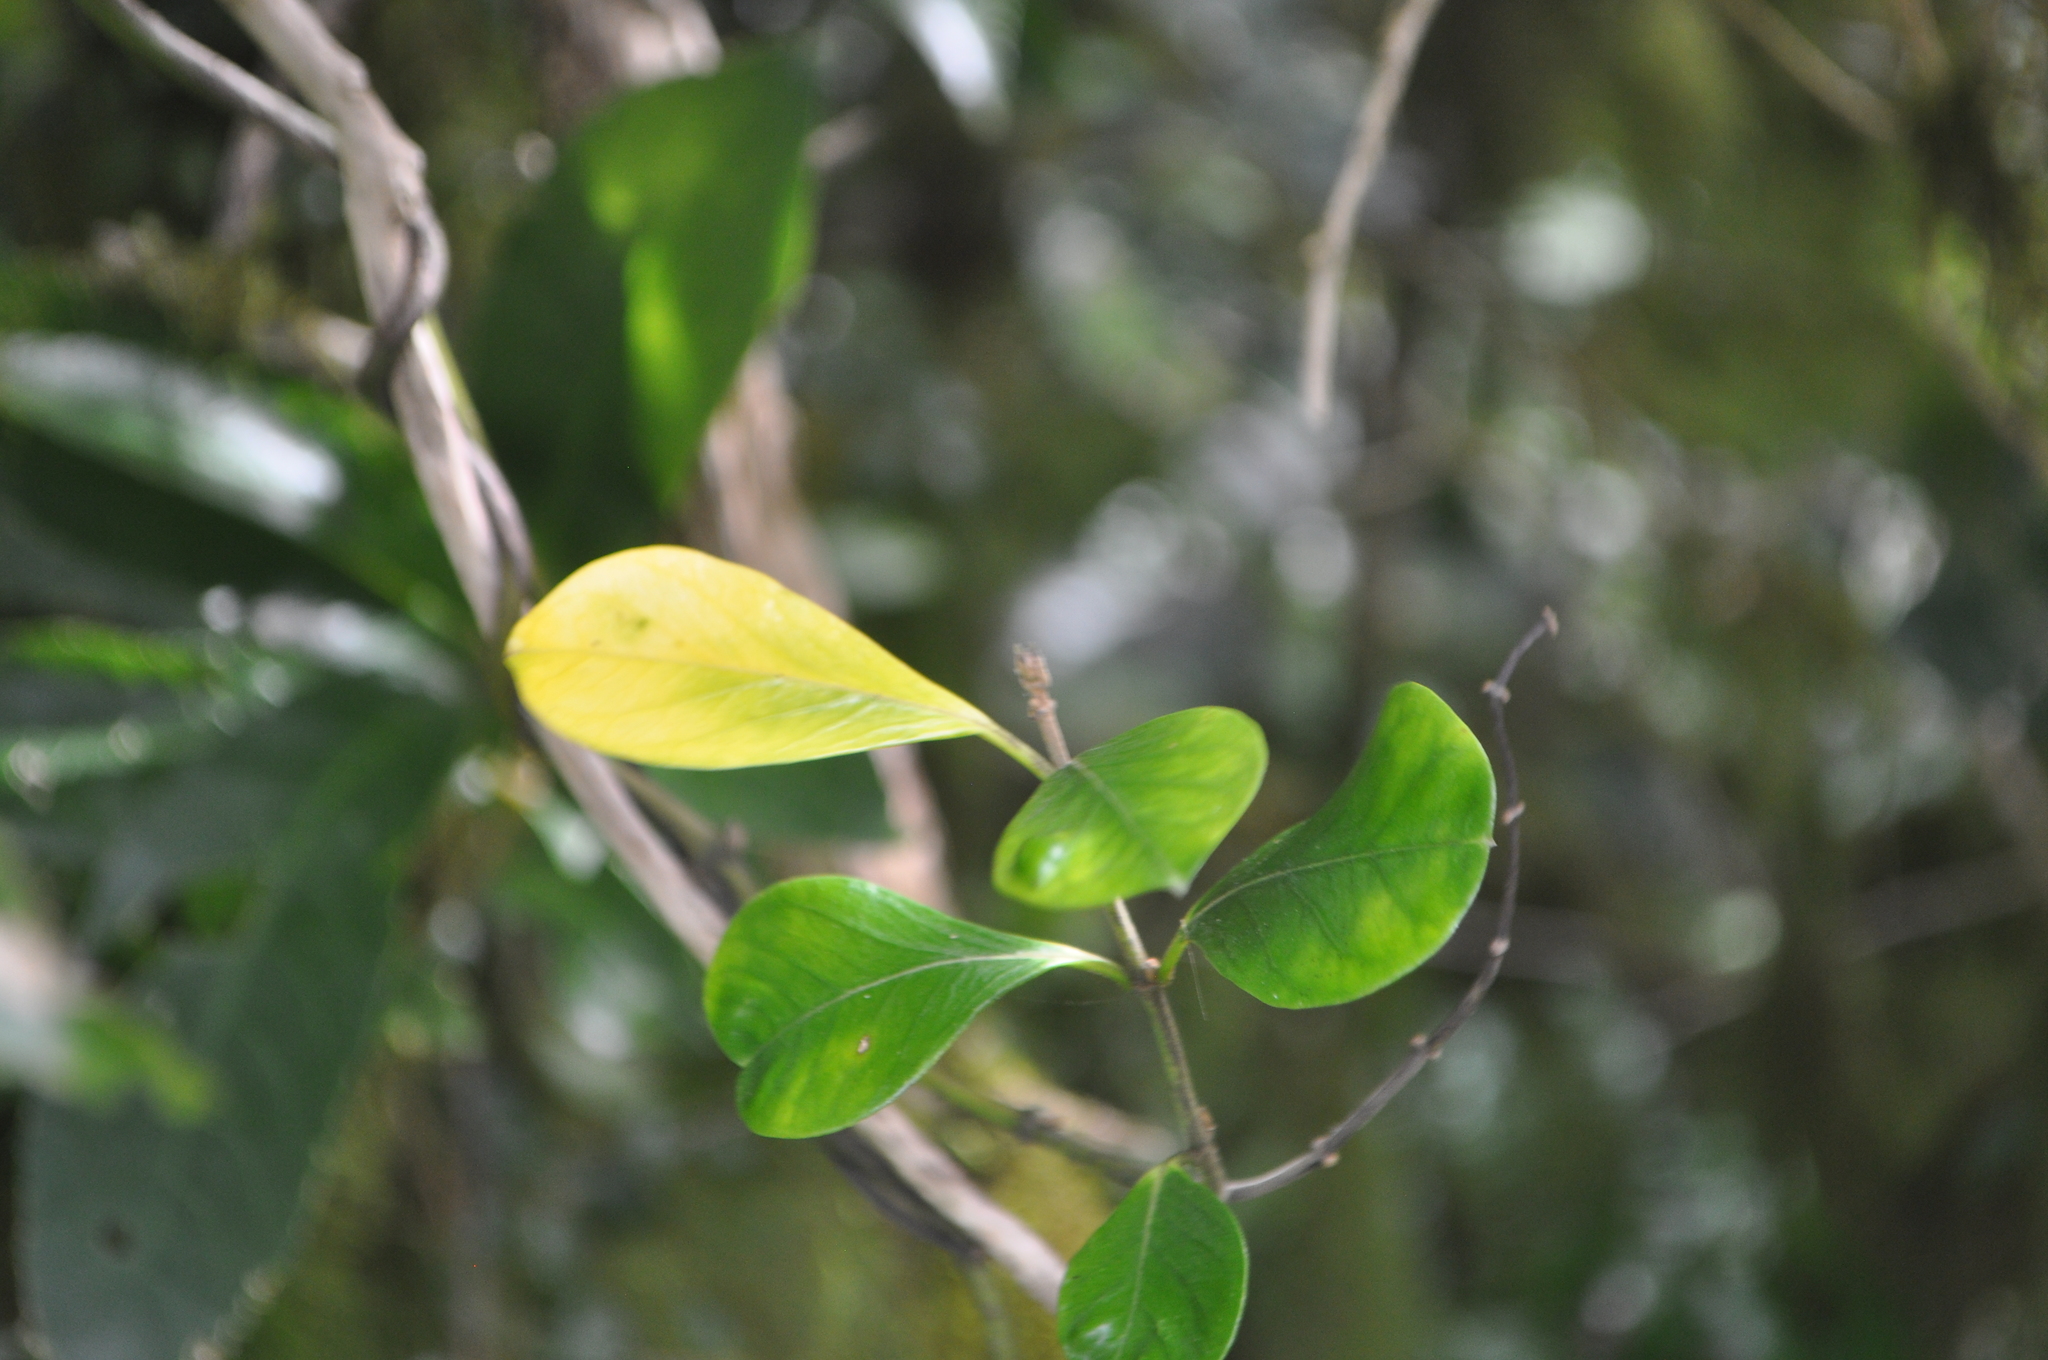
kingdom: Plantae
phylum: Tracheophyta
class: Magnoliopsida
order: Myrtales
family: Myrtaceae
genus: Metrosideros
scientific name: Metrosideros fulgens
